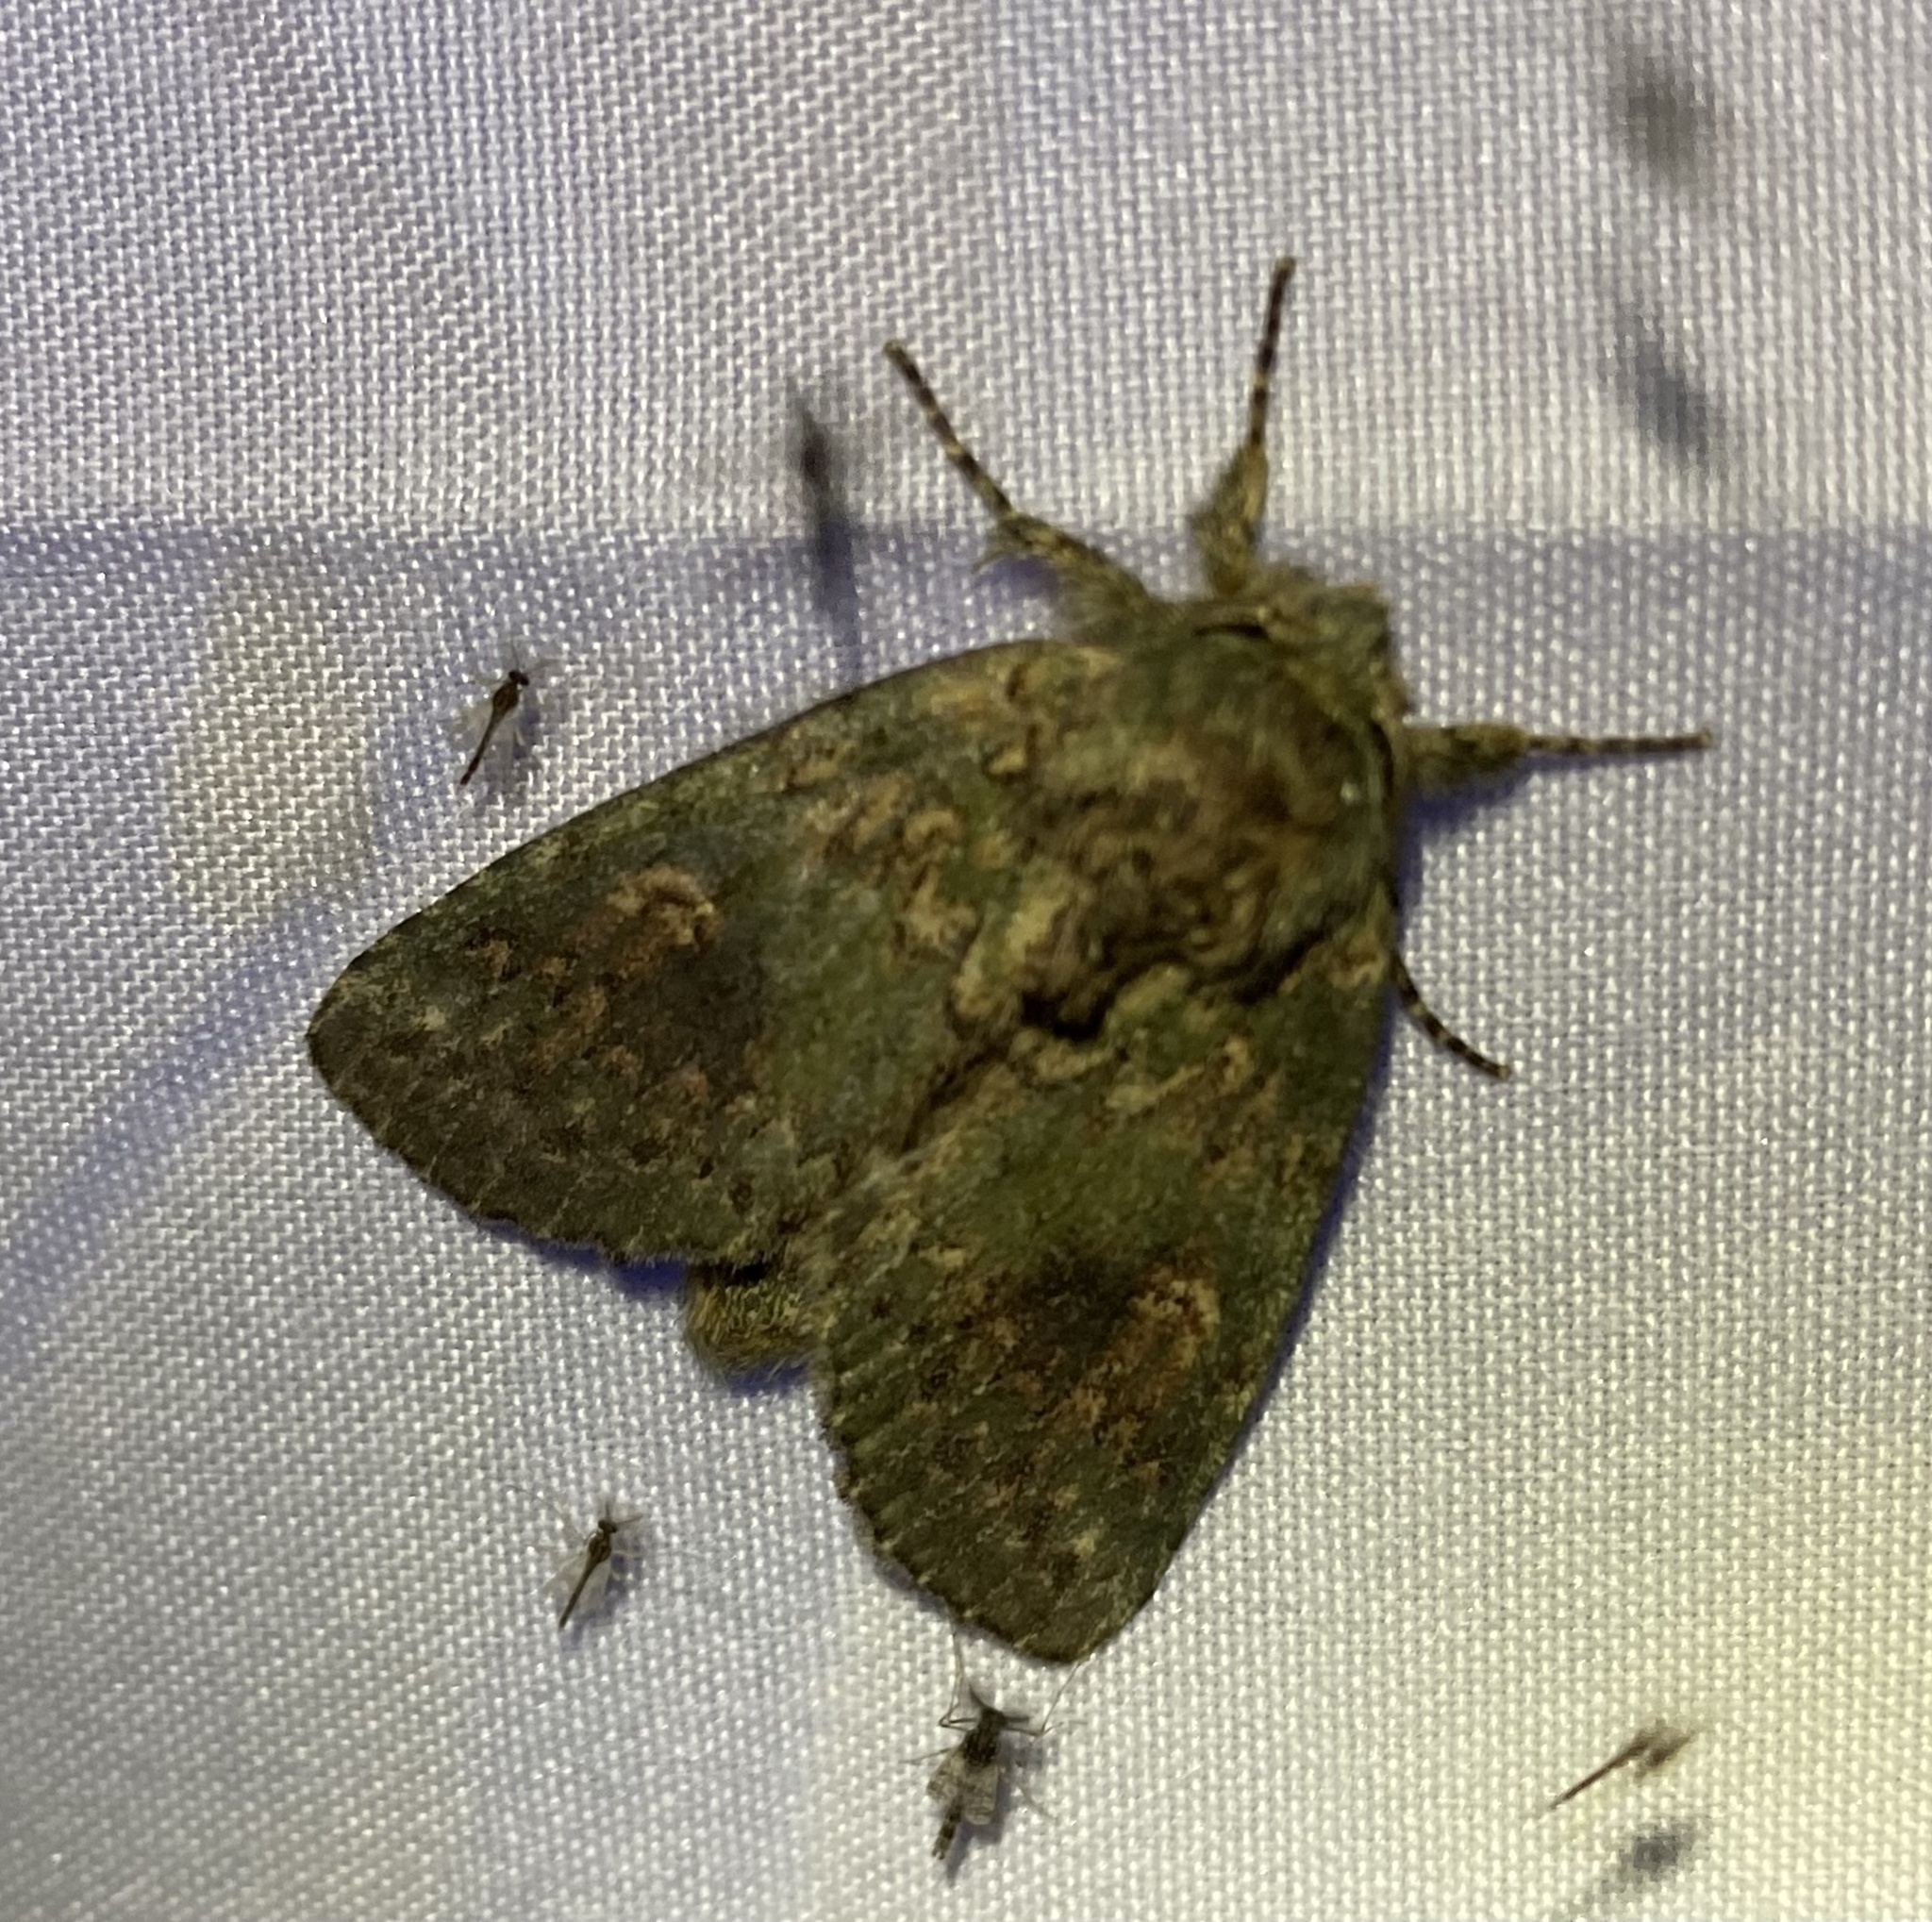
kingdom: Animalia
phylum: Arthropoda
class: Insecta
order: Lepidoptera
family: Notodontidae
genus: Disphragis
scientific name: Disphragis Cecrita biundata
